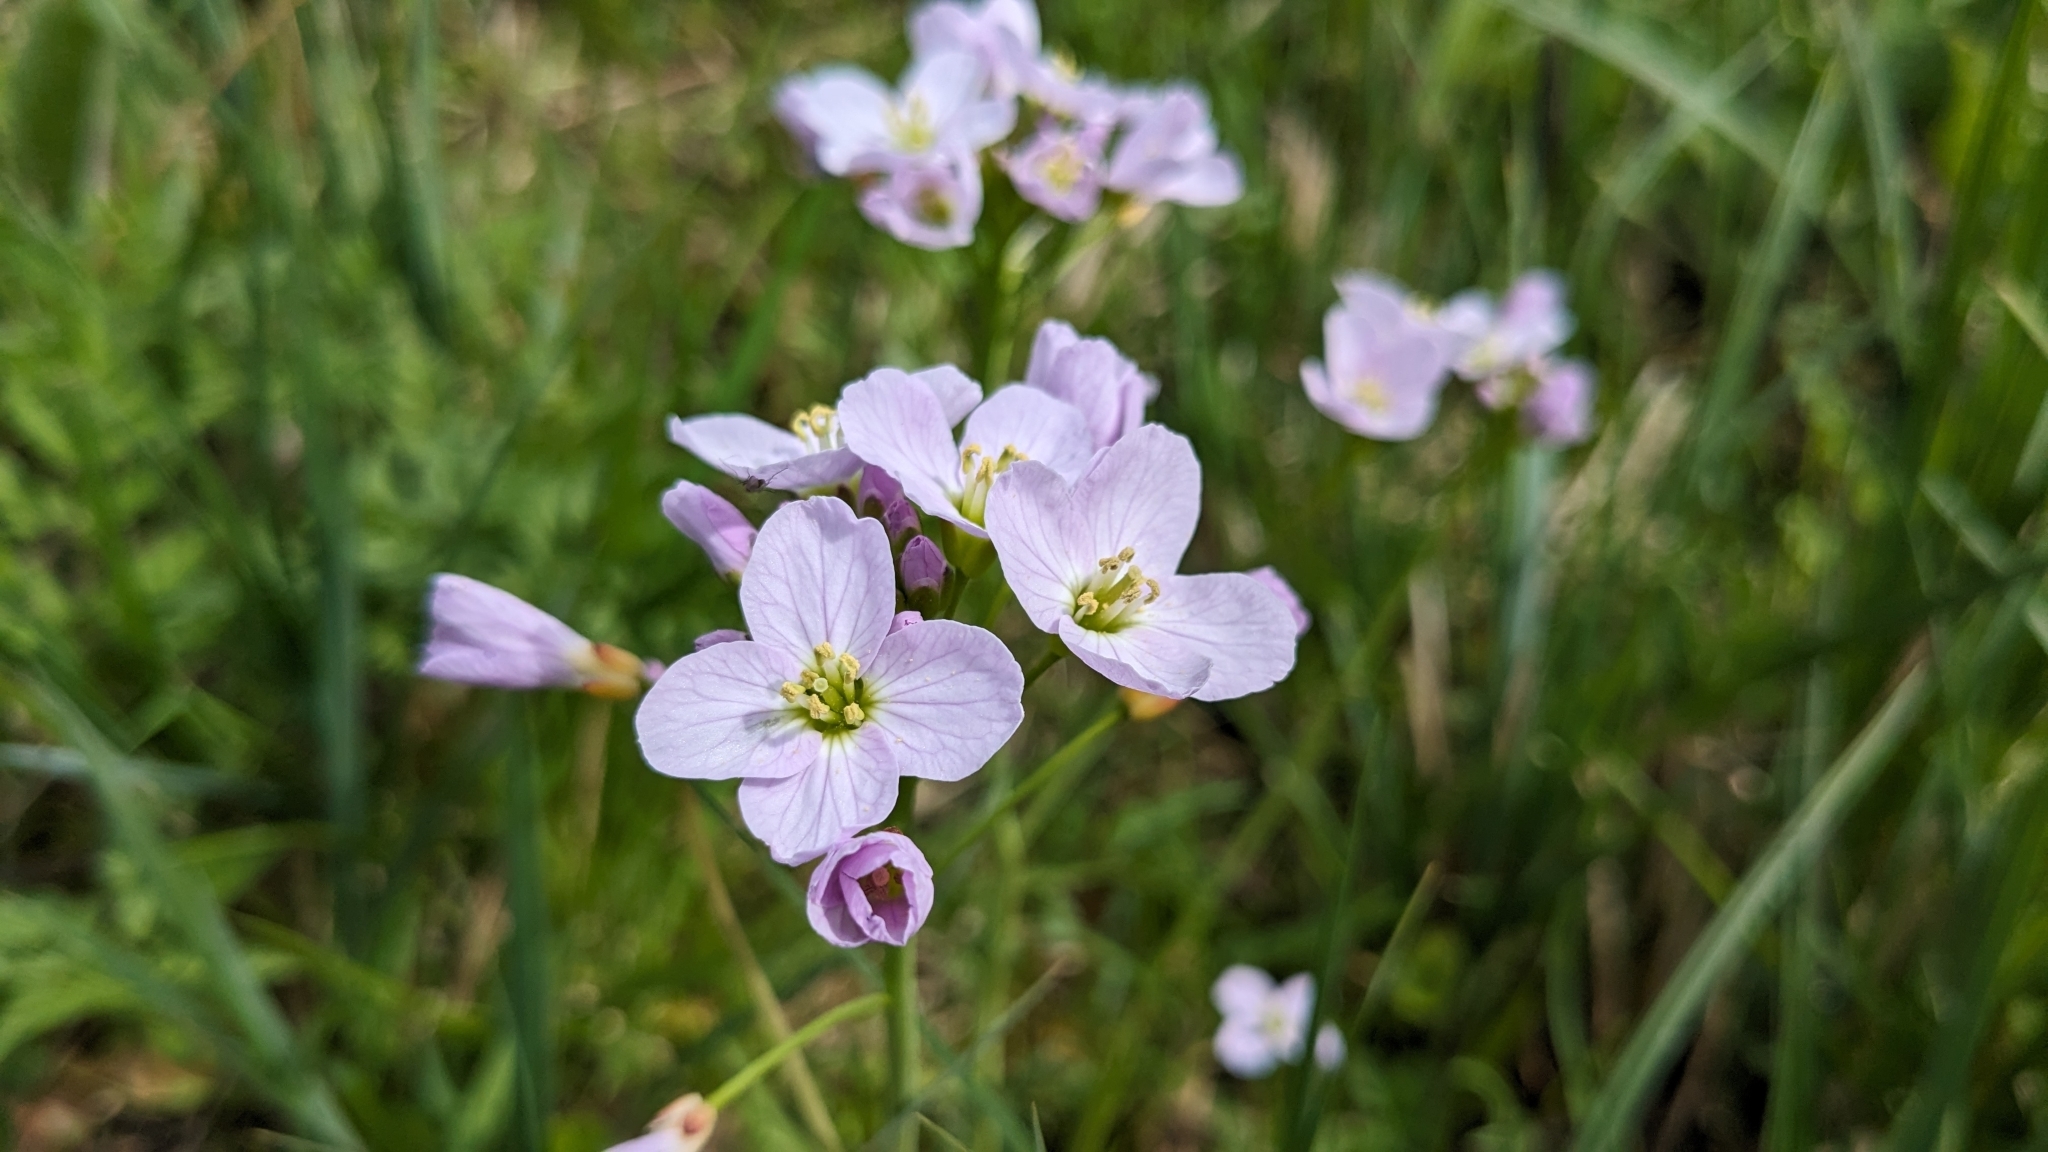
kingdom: Plantae
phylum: Tracheophyta
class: Magnoliopsida
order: Brassicales
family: Brassicaceae
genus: Cardamine
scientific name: Cardamine pratensis
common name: Cuckoo flower
